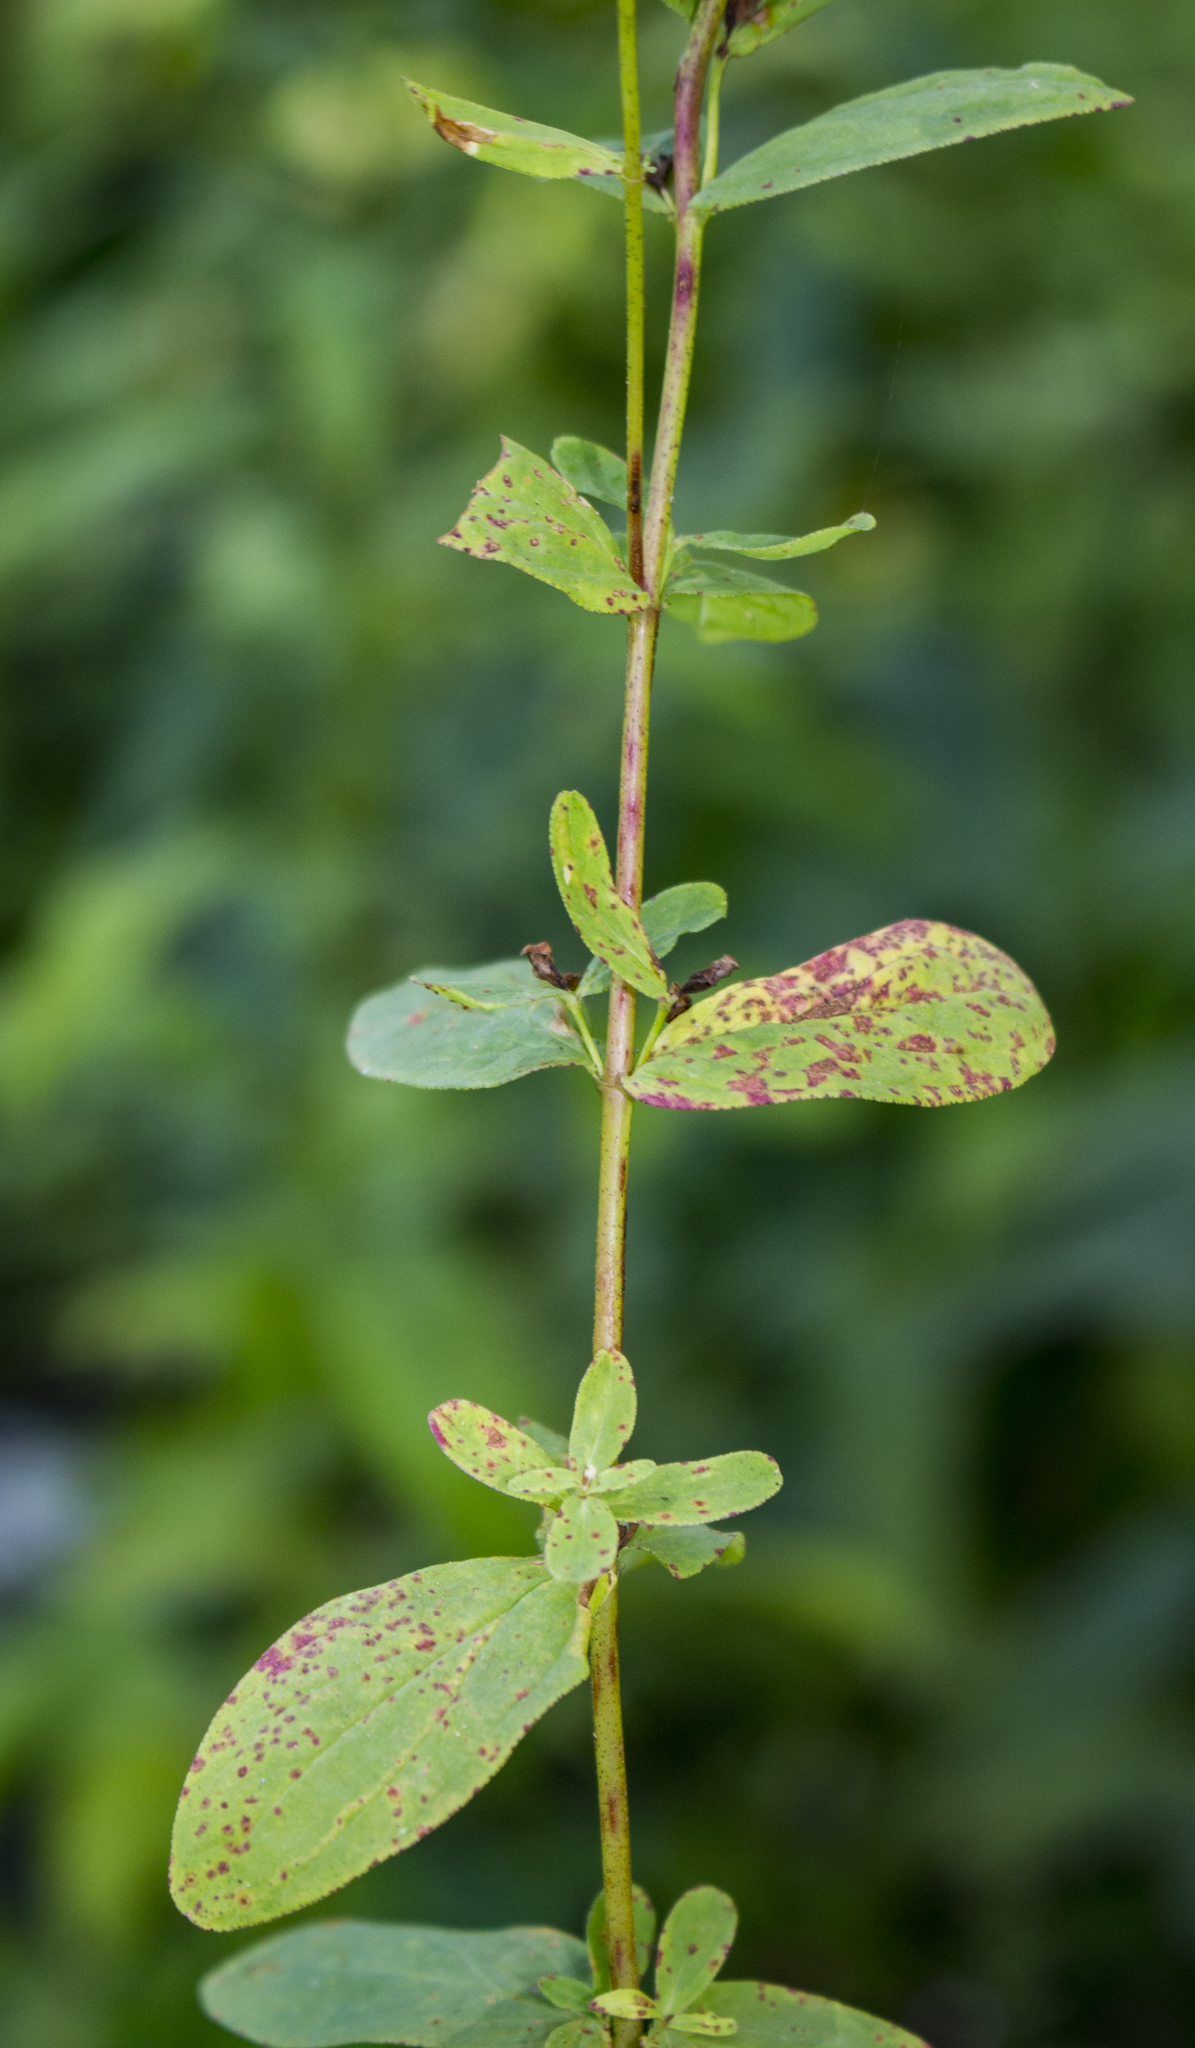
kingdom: Plantae
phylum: Tracheophyta
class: Magnoliopsida
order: Malpighiales
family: Hypericaceae
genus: Hypericum
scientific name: Hypericum perforatum
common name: Common st. johnswort
